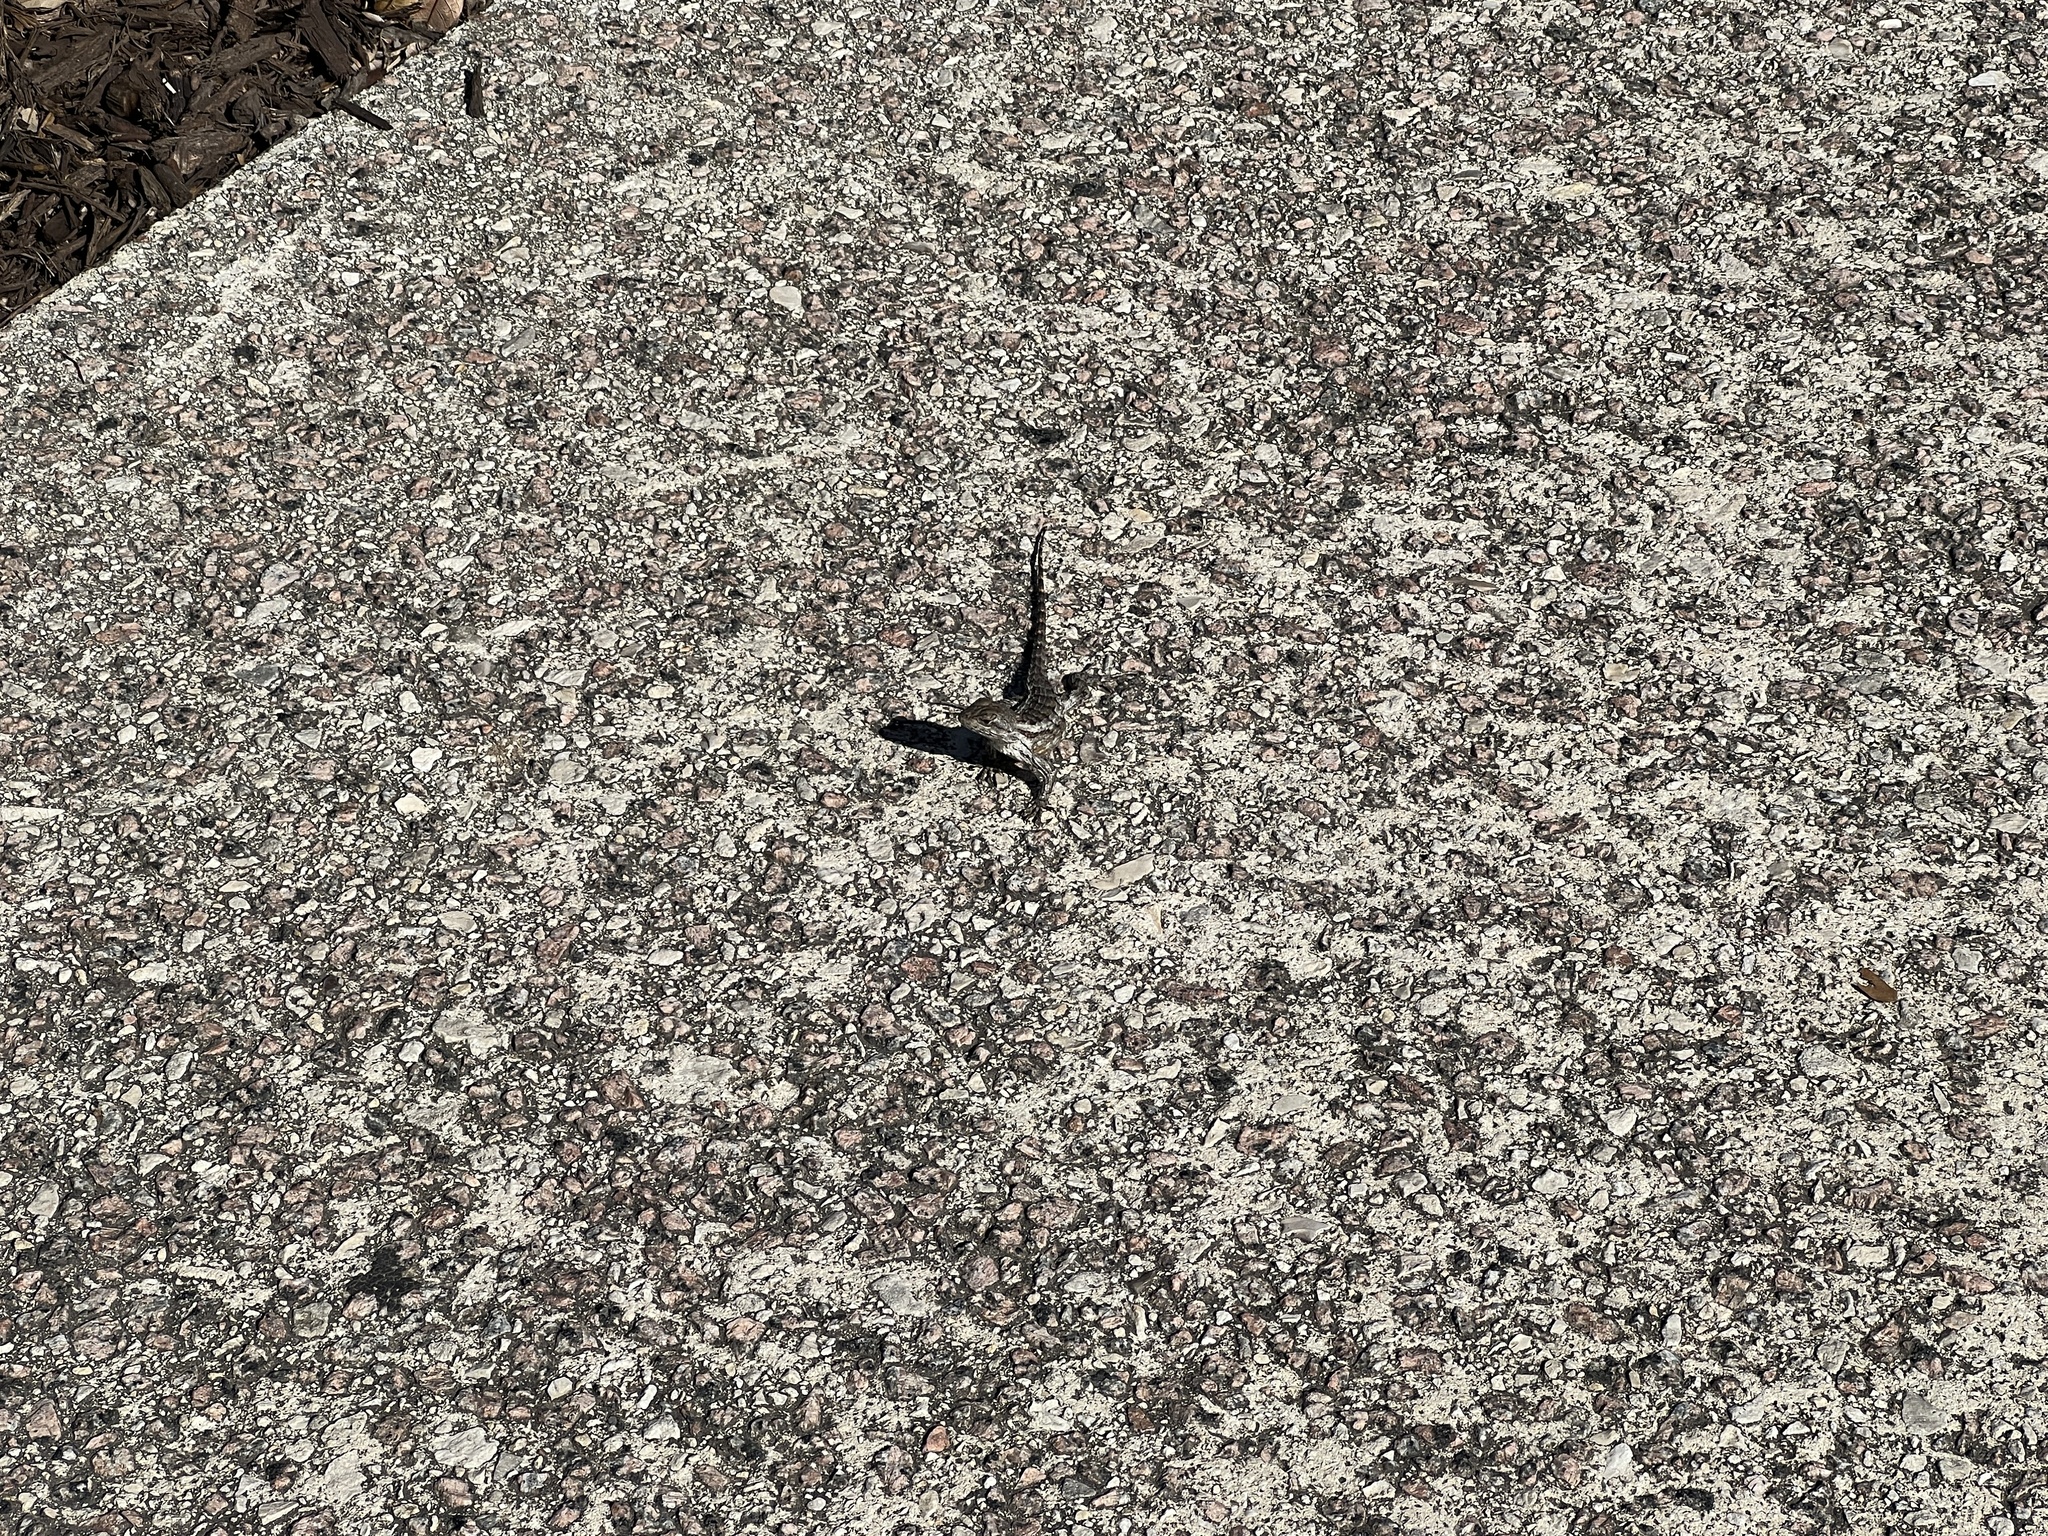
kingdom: Animalia
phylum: Chordata
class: Squamata
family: Phrynosomatidae
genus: Sceloporus
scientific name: Sceloporus olivaceus
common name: Texas spiny lizard
